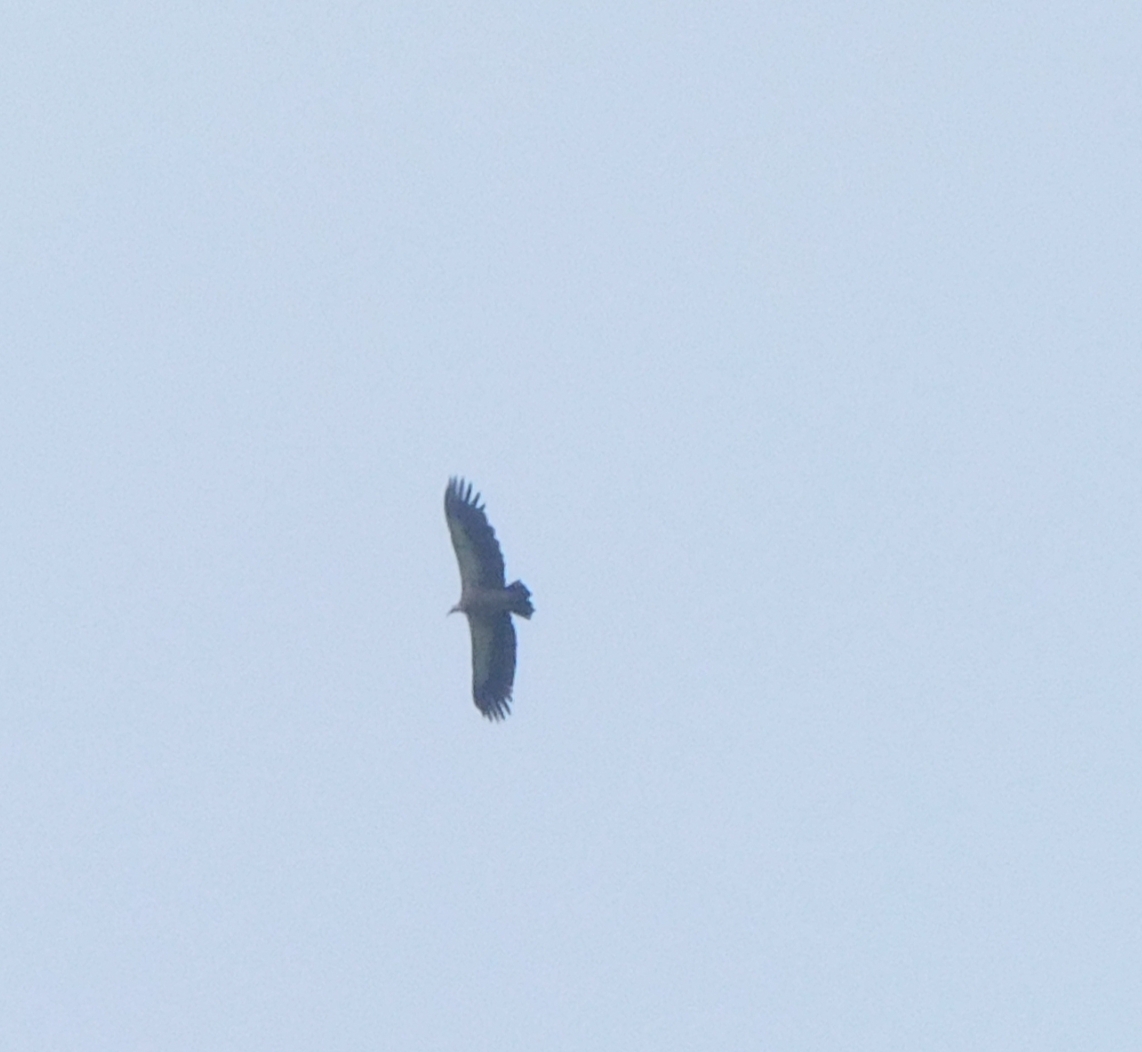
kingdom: Animalia
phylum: Chordata
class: Aves
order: Accipitriformes
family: Accipitridae
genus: Gyps
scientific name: Gyps himalayensis
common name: Himalayan griffon
